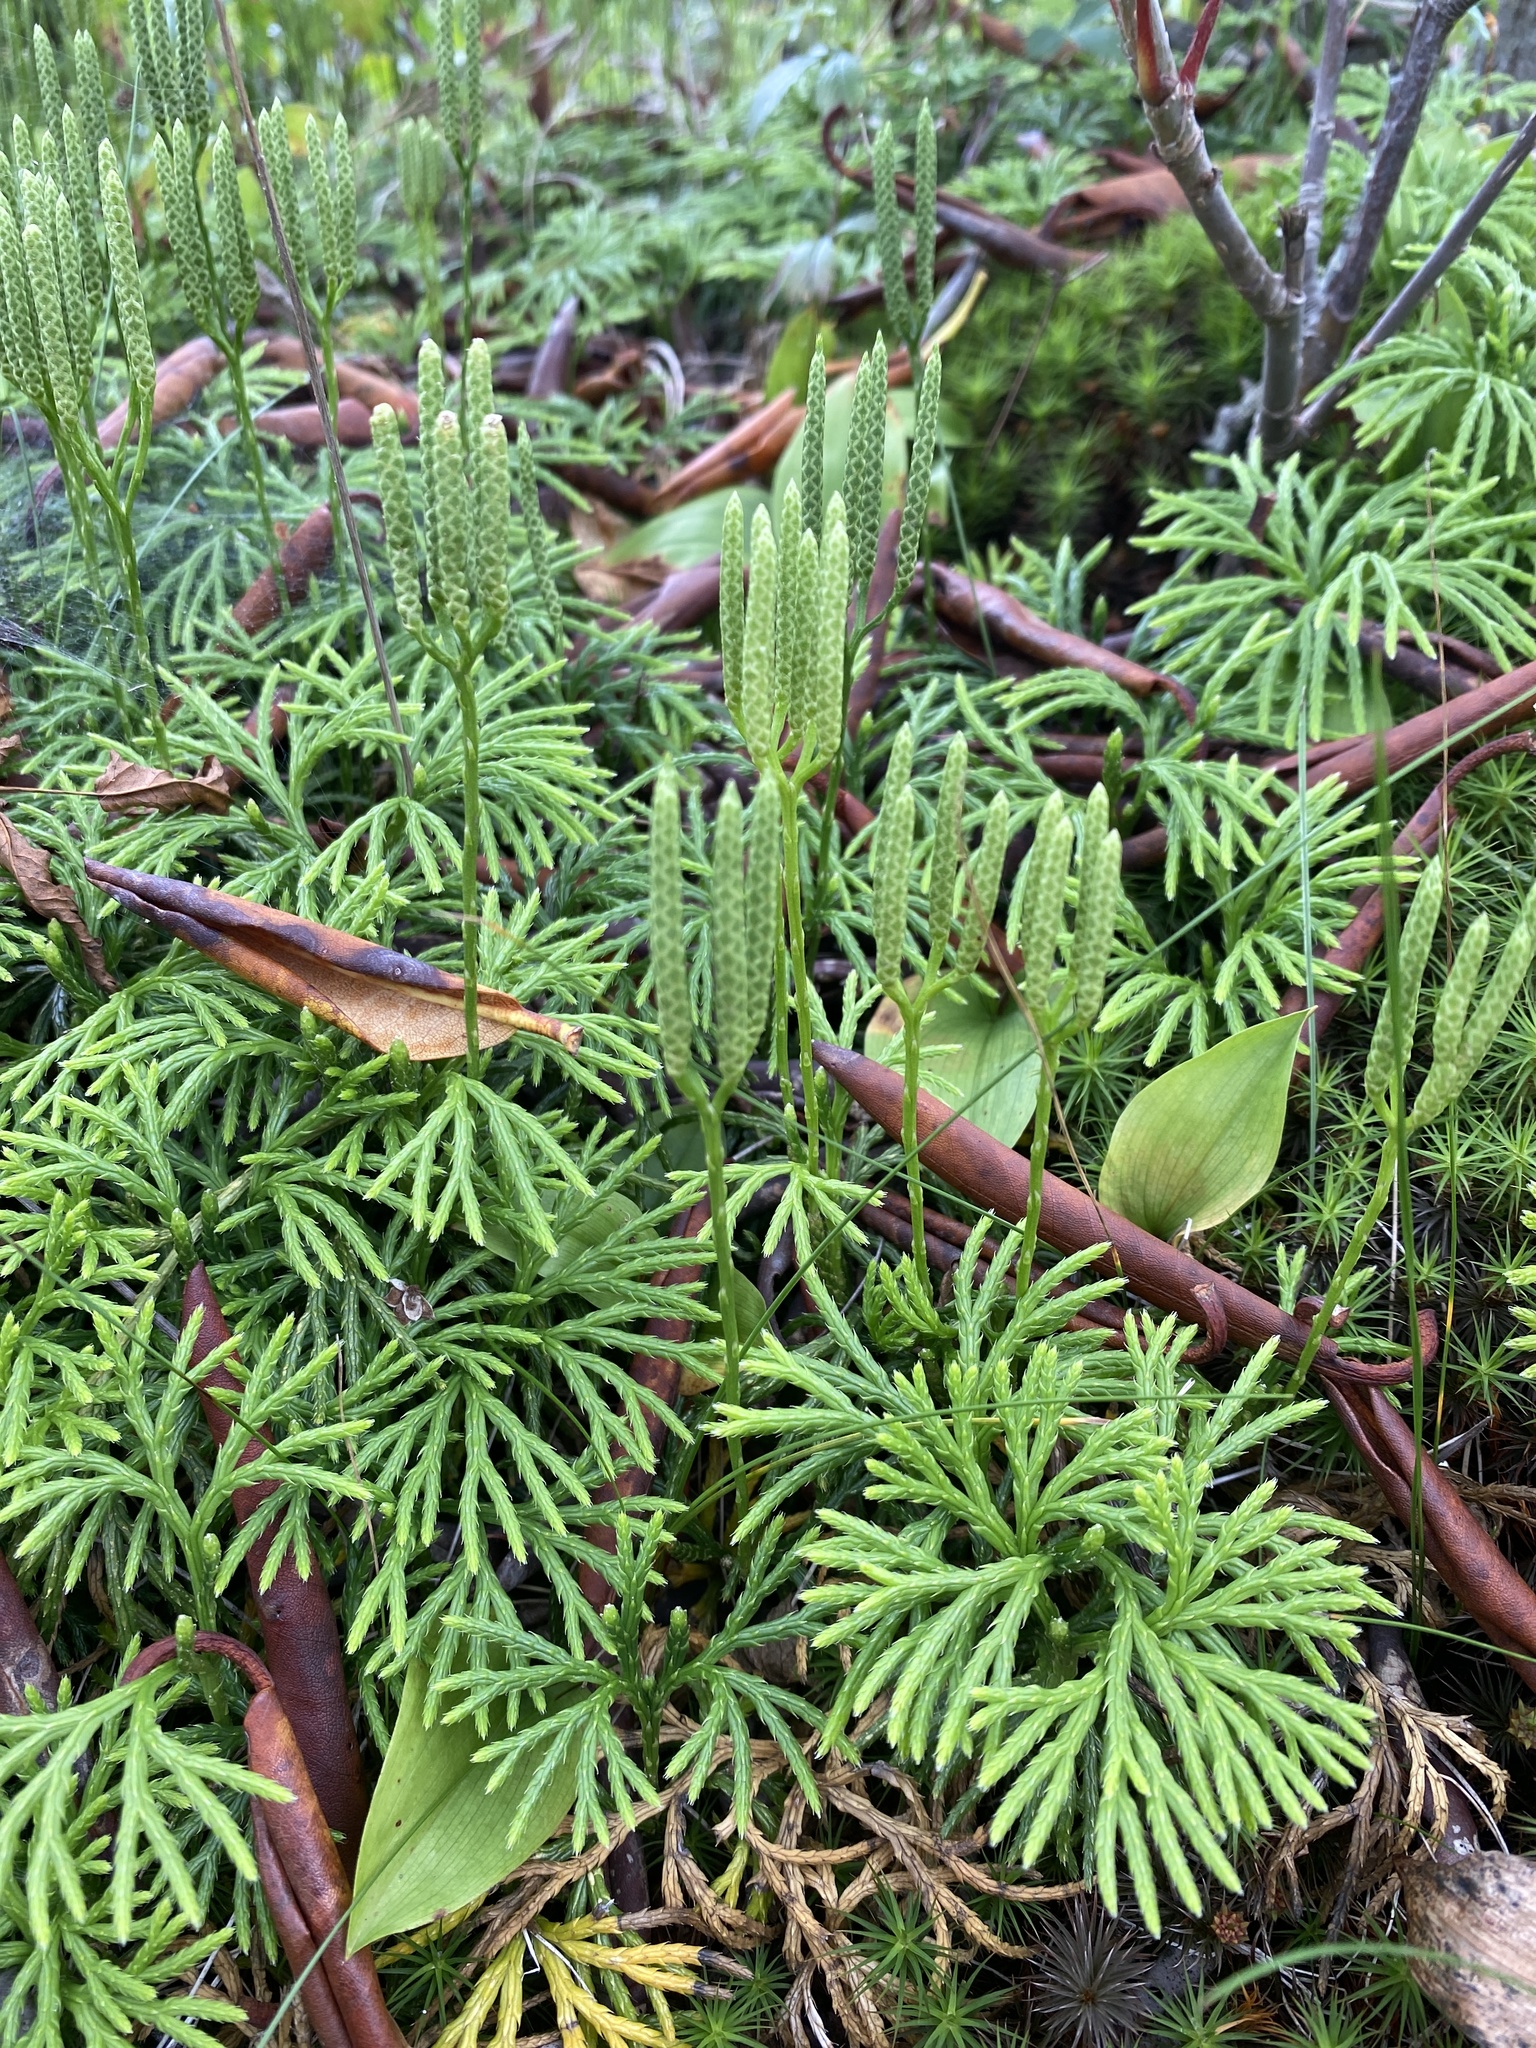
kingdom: Plantae
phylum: Tracheophyta
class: Lycopodiopsida
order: Lycopodiales
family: Lycopodiaceae
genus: Diphasiastrum
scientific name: Diphasiastrum digitatum
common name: Southern running-pine
